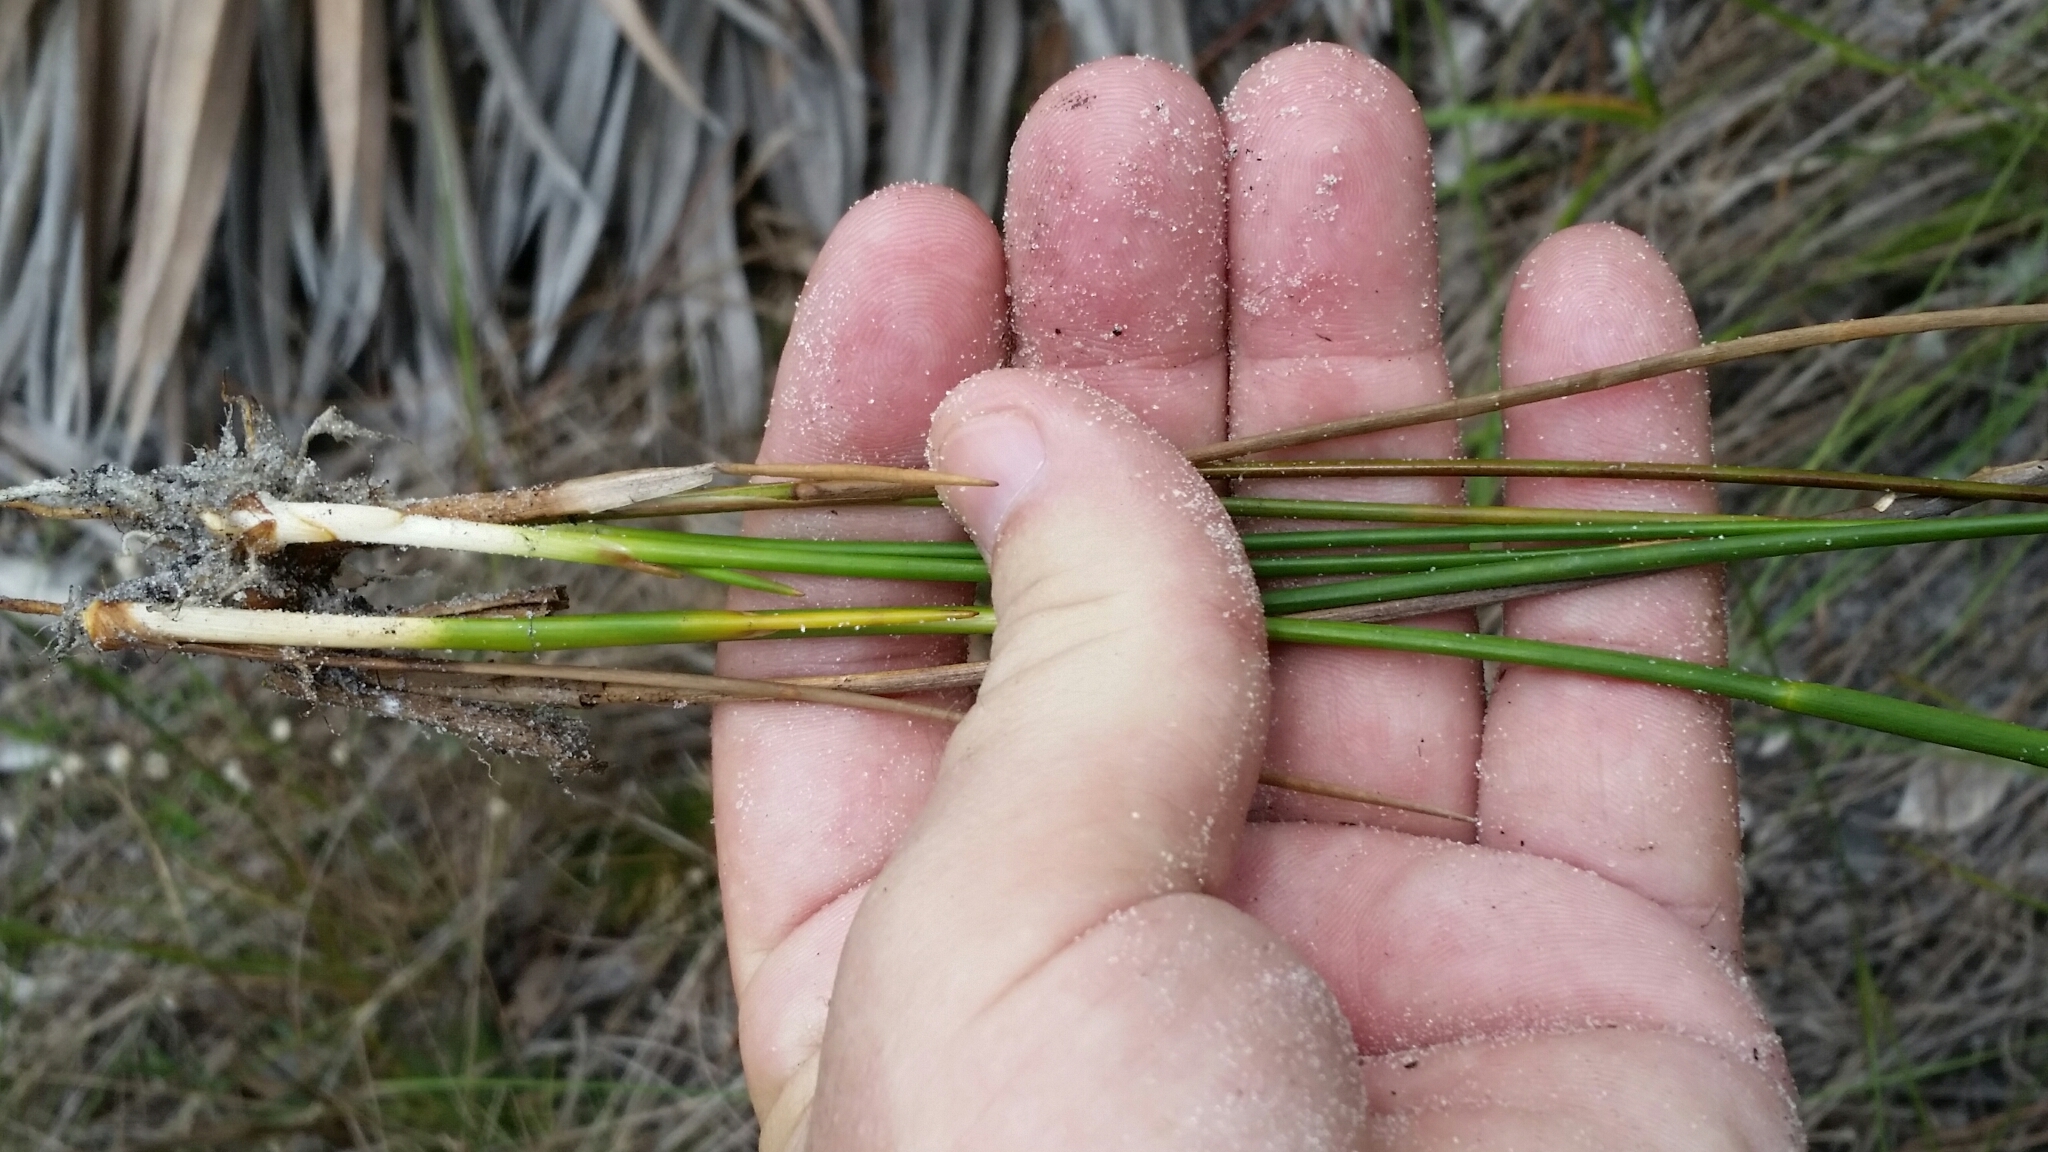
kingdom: Plantae
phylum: Tracheophyta
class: Liliopsida
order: Poales
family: Juncaceae
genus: Juncus
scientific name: Juncus scirpoides
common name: Needlepod rush
